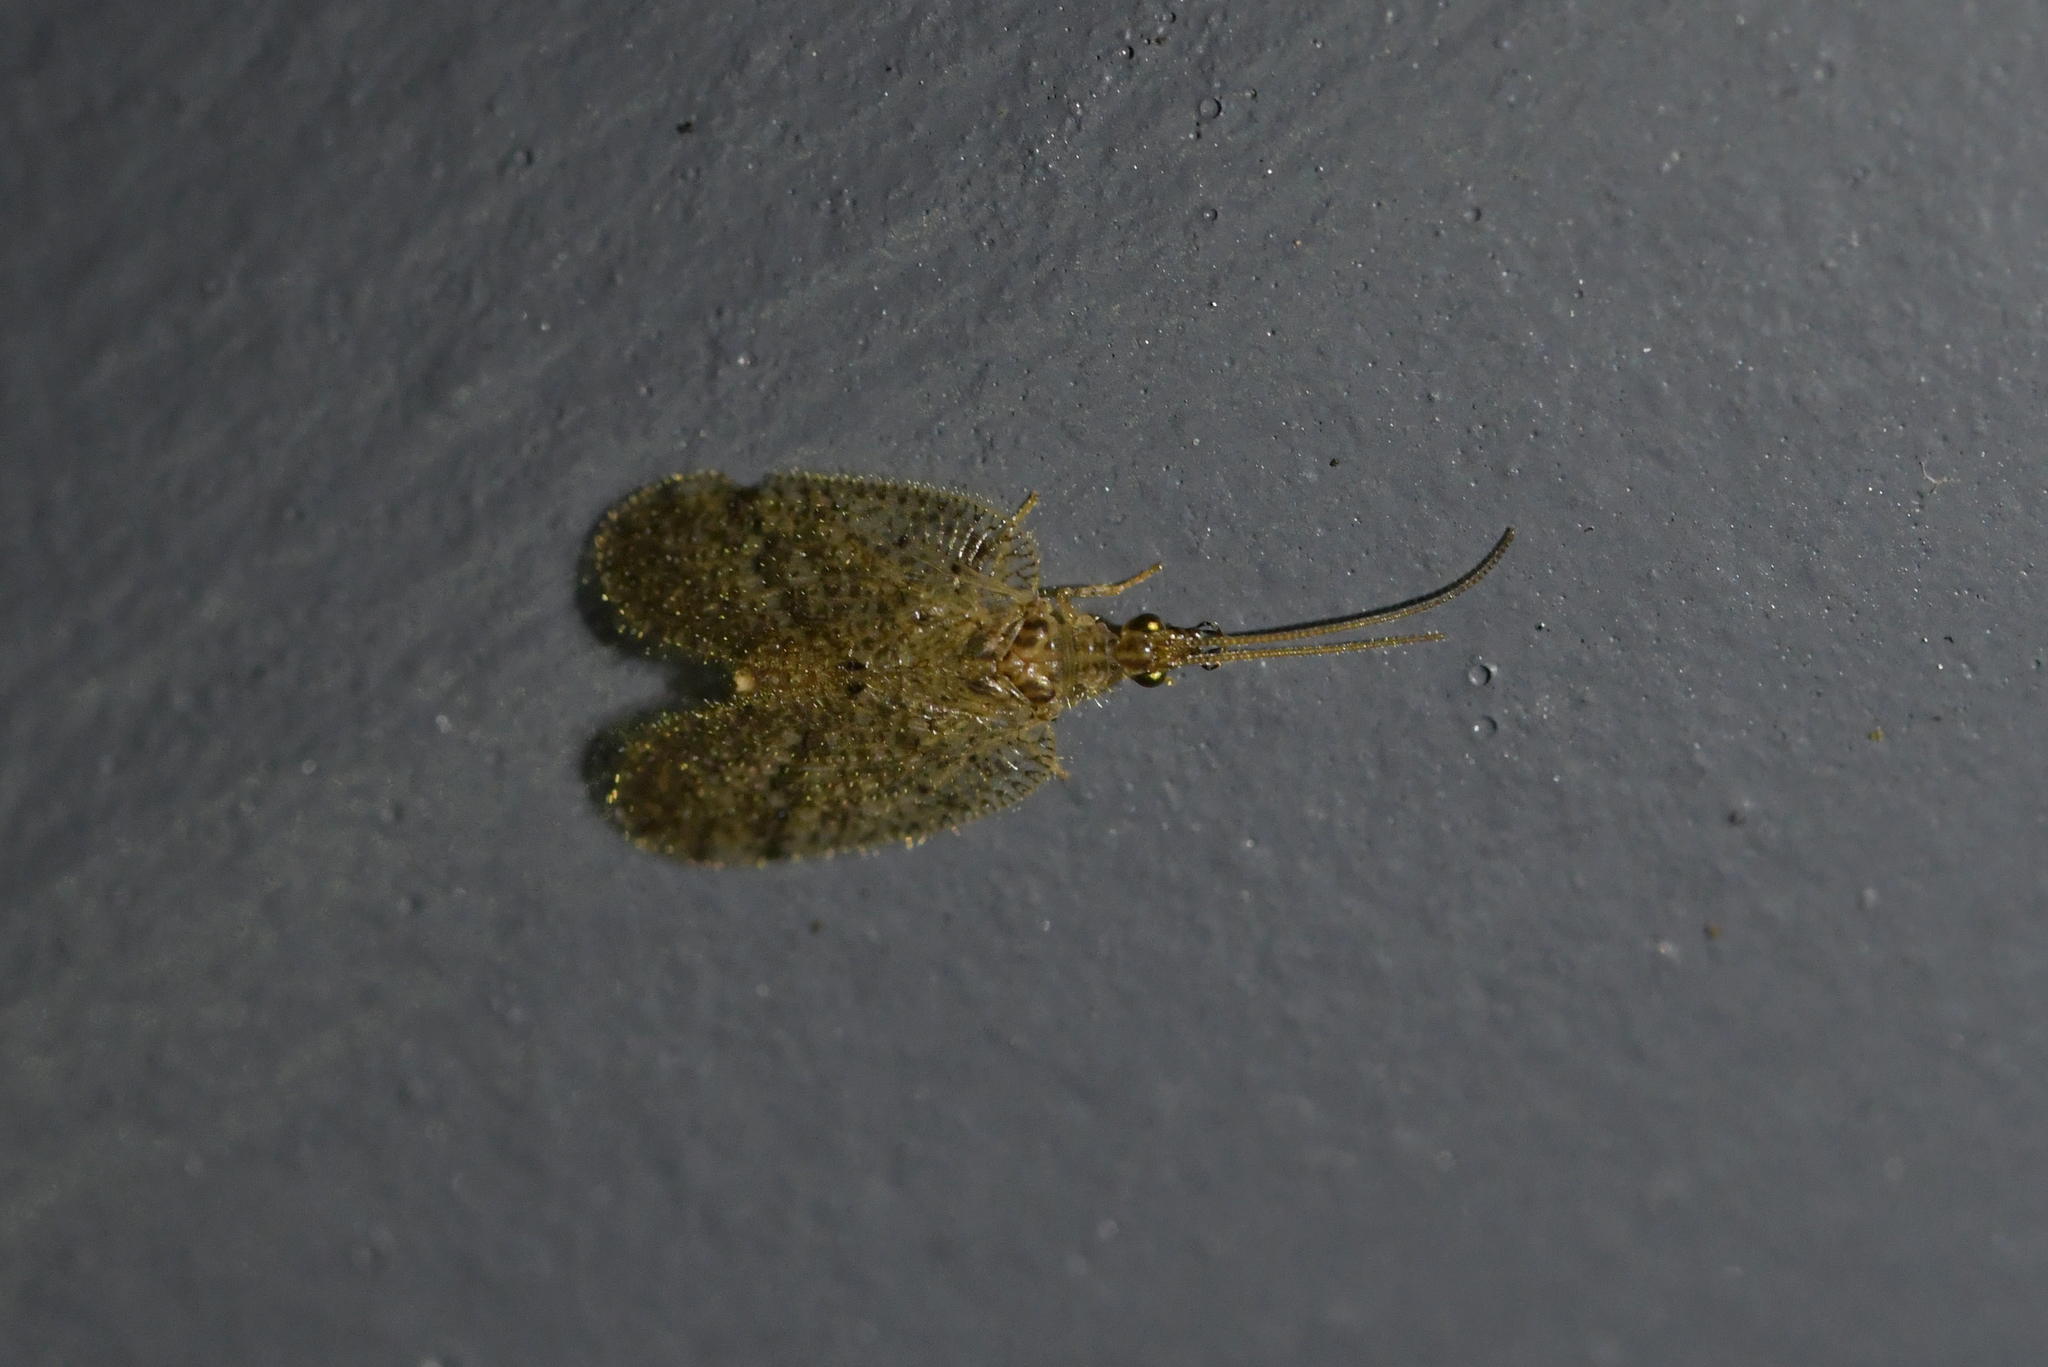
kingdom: Animalia
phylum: Arthropoda
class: Insecta
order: Neuroptera
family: Hemerobiidae
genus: Psectra
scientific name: Psectra nakaharai
